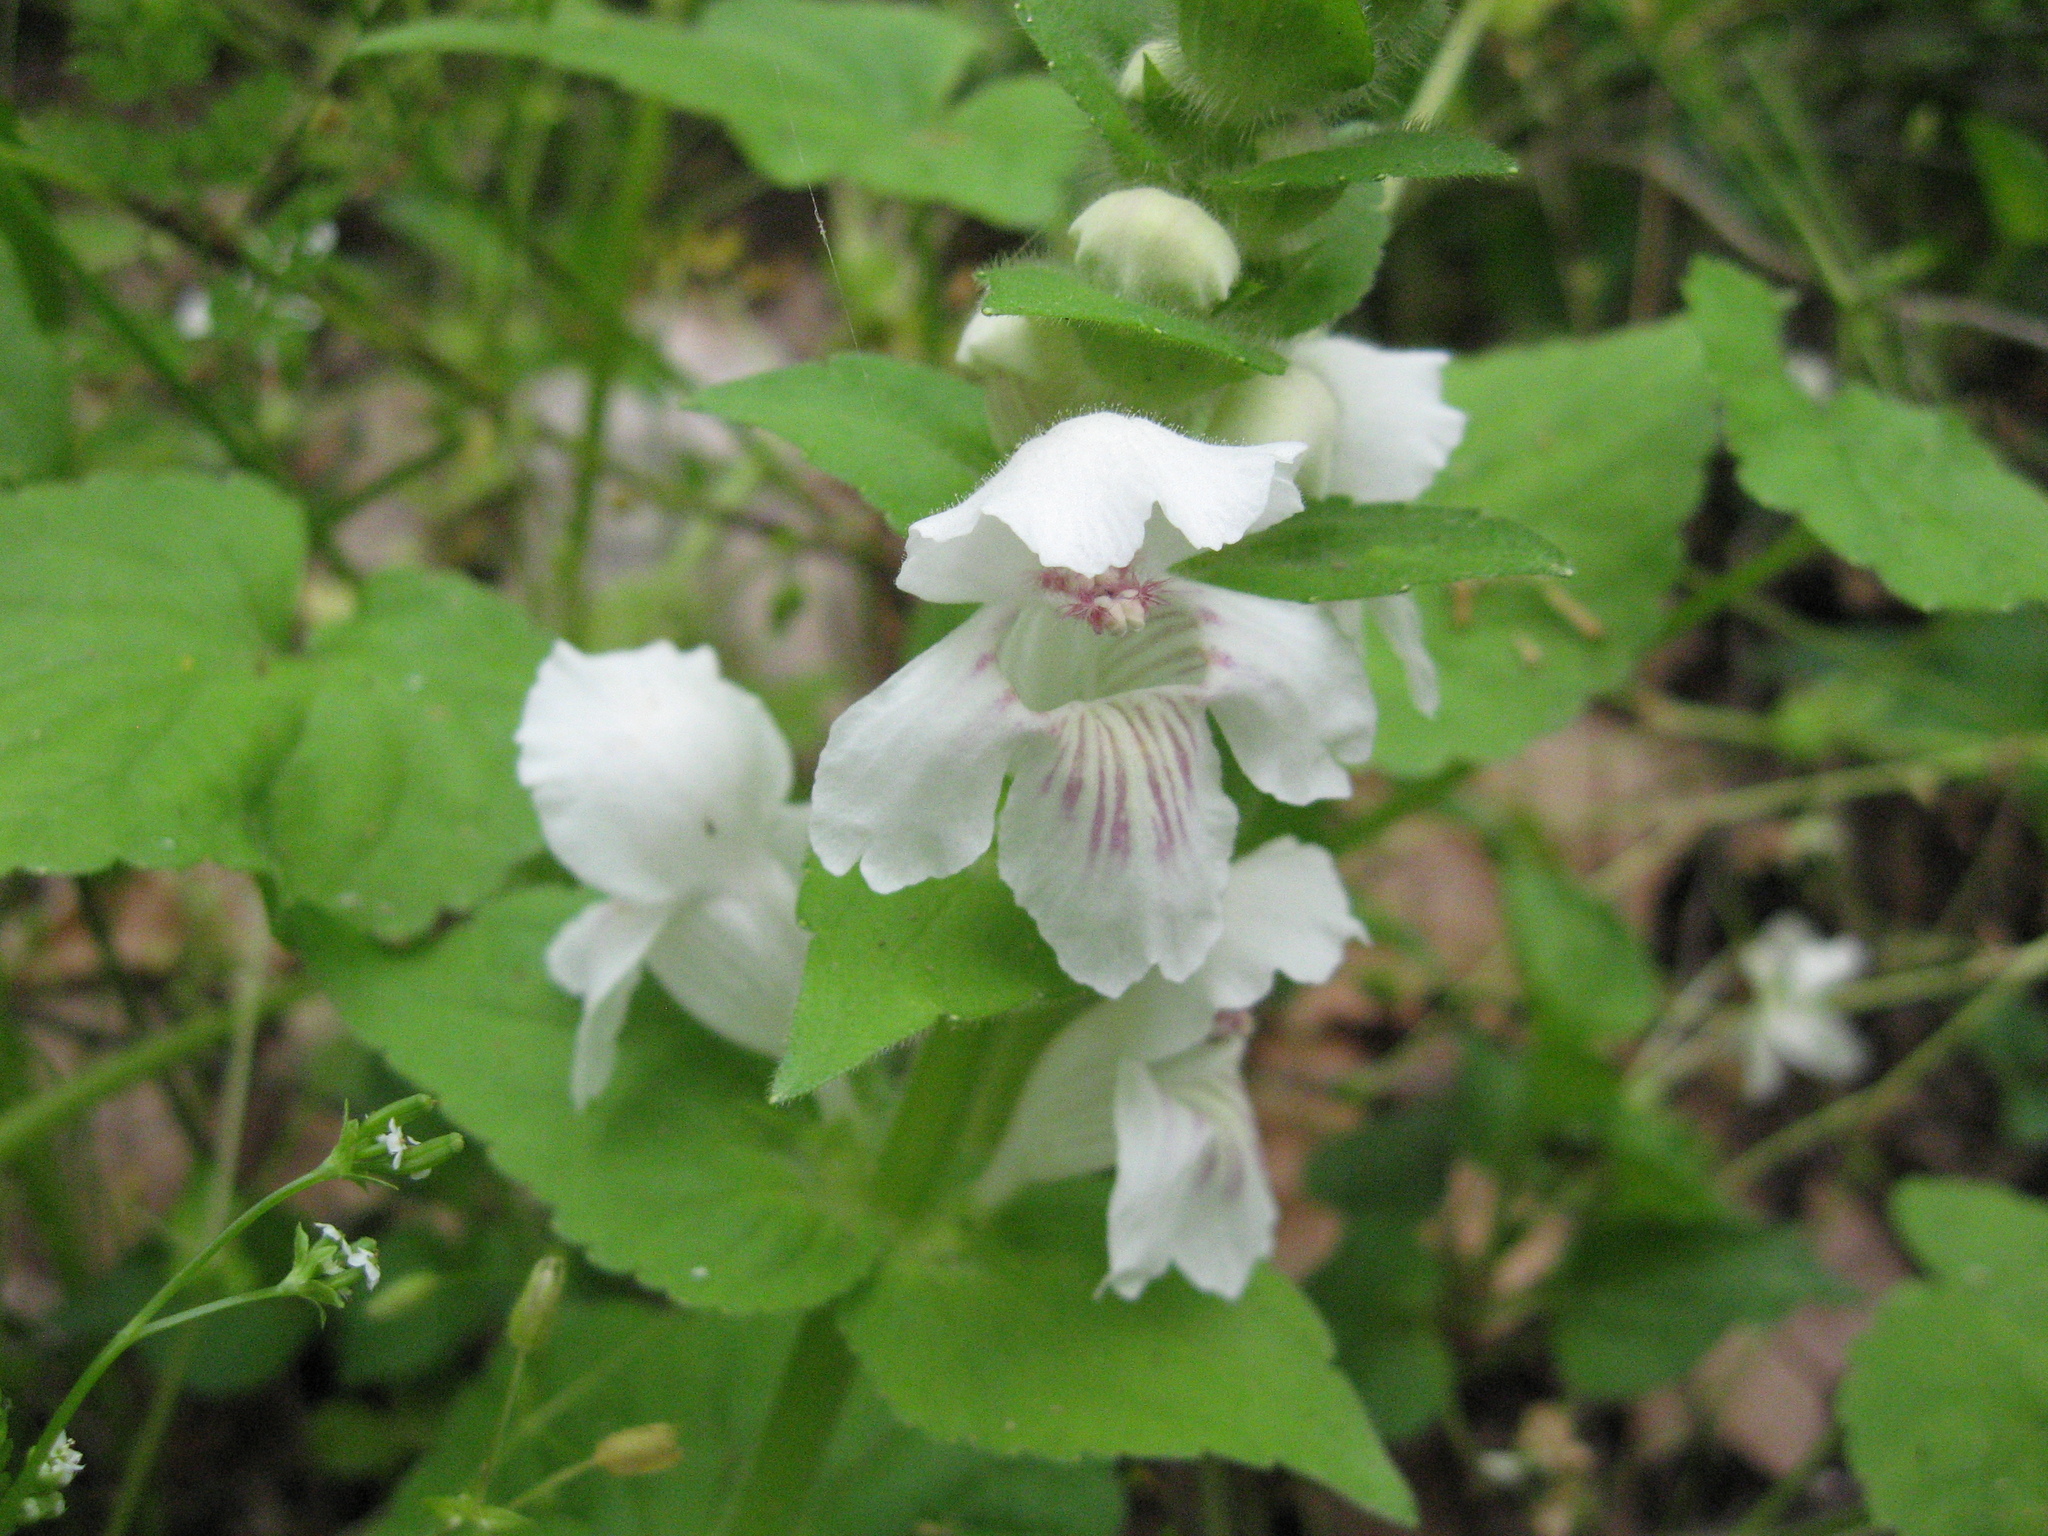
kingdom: Plantae
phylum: Tracheophyta
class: Magnoliopsida
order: Lamiales
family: Lamiaceae
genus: Synandra
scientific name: Synandra hispidula
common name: Synandra
